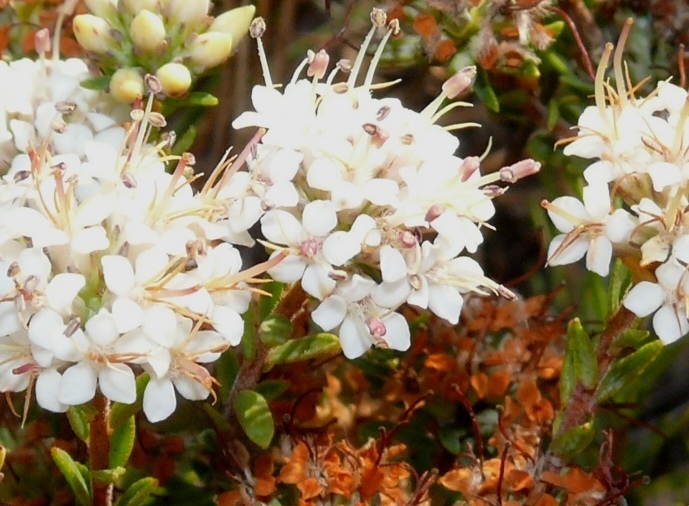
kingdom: Plantae
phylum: Tracheophyta
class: Magnoliopsida
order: Sapindales
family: Rutaceae
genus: Macrostylis
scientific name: Macrostylis villosa
